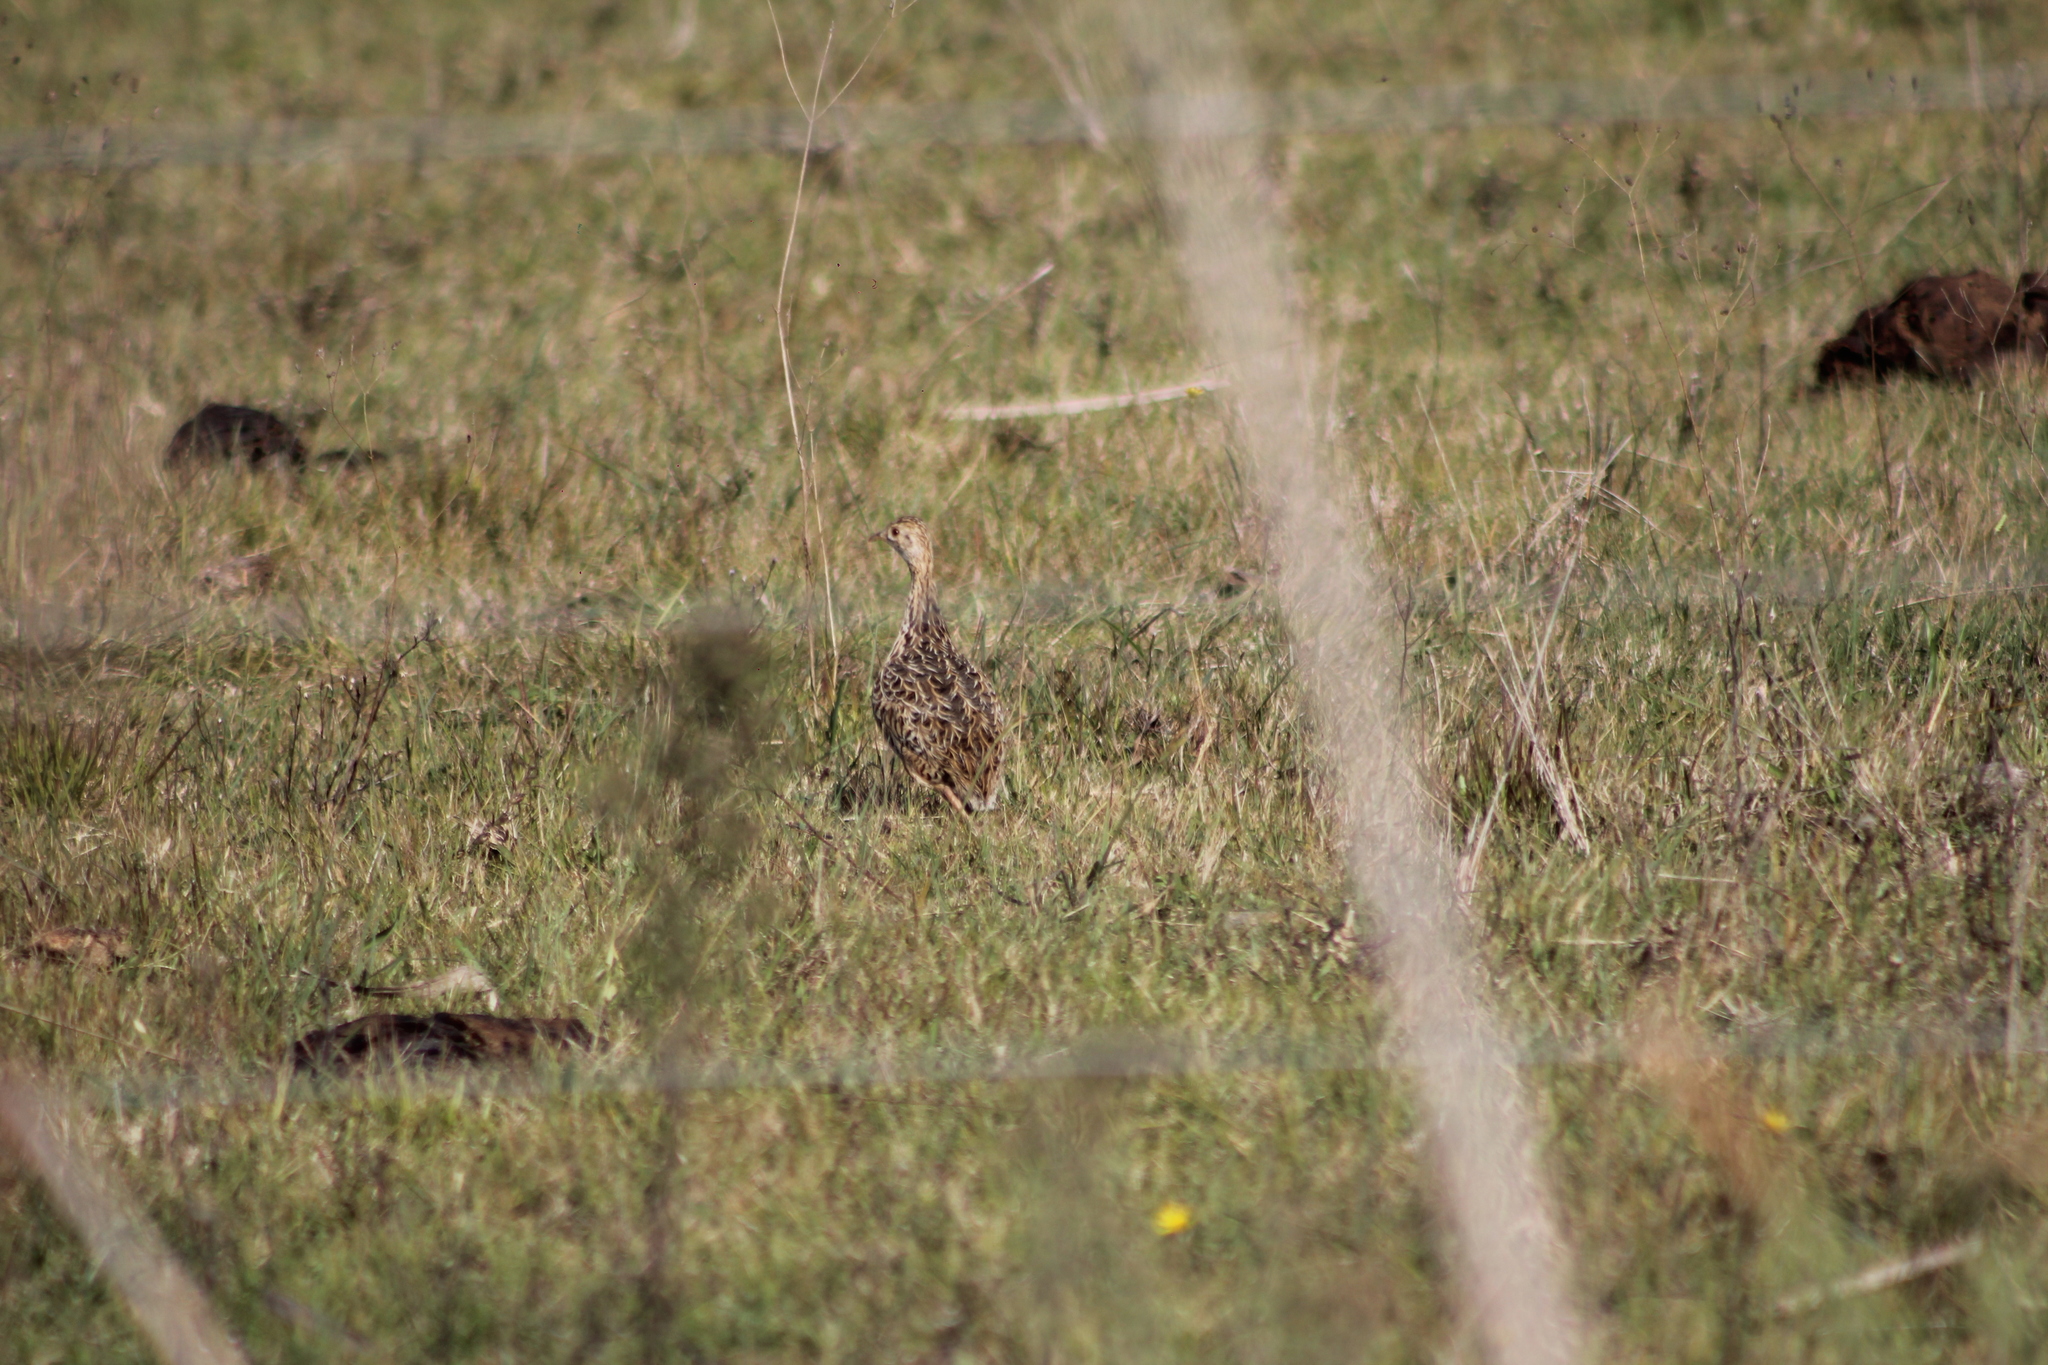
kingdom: Animalia
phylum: Chordata
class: Aves
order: Tinamiformes
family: Tinamidae
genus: Nothura
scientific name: Nothura maculosa
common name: Spotted nothura
